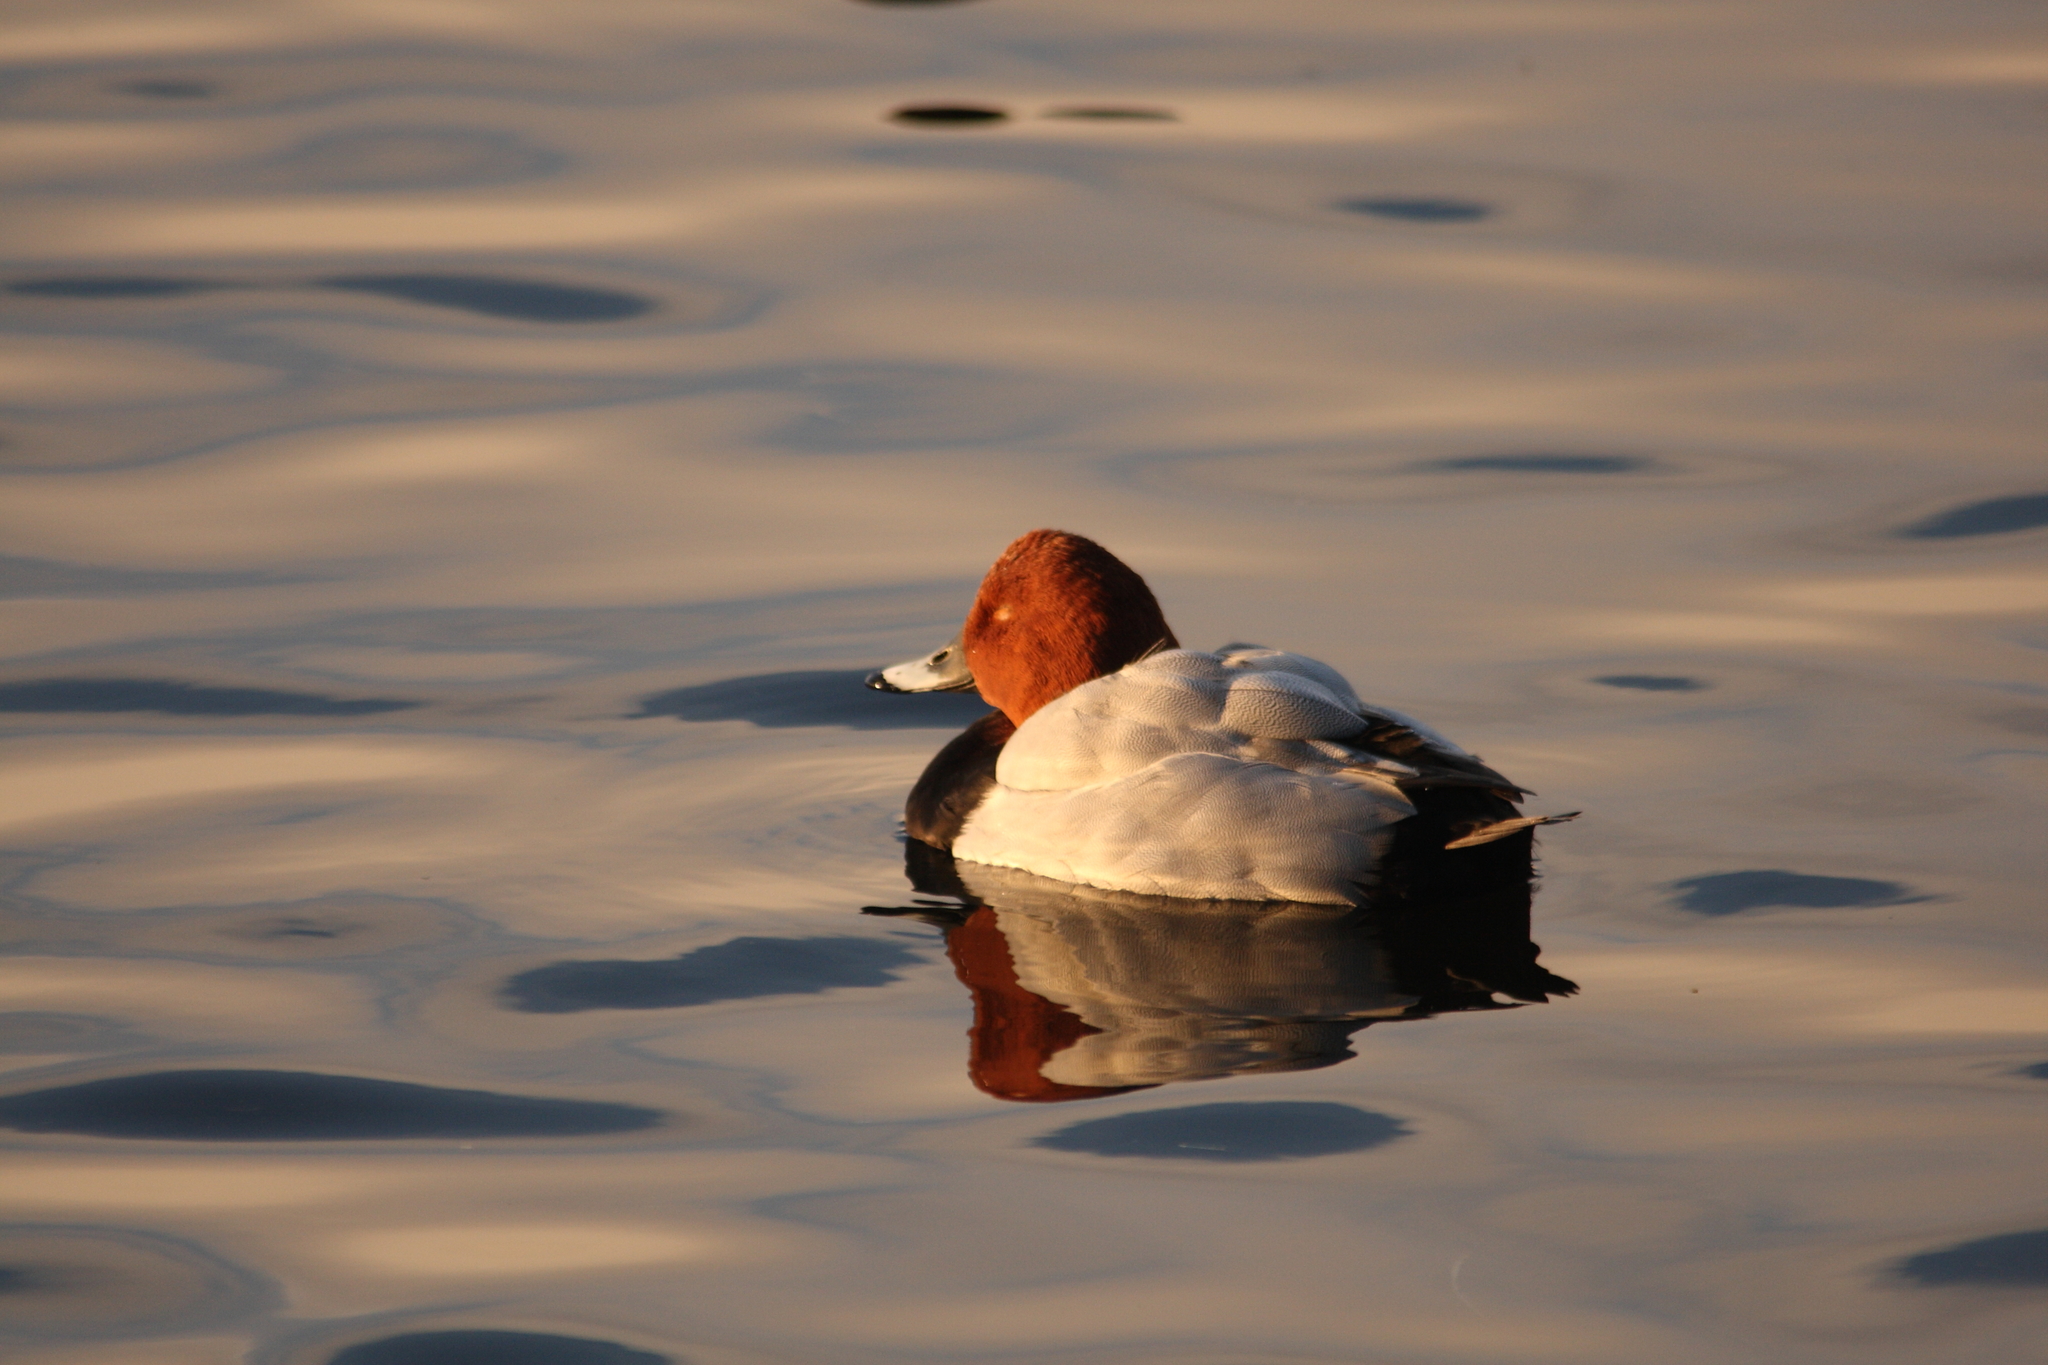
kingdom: Animalia
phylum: Chordata
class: Aves
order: Anseriformes
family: Anatidae
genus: Aythya
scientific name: Aythya ferina
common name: Common pochard
